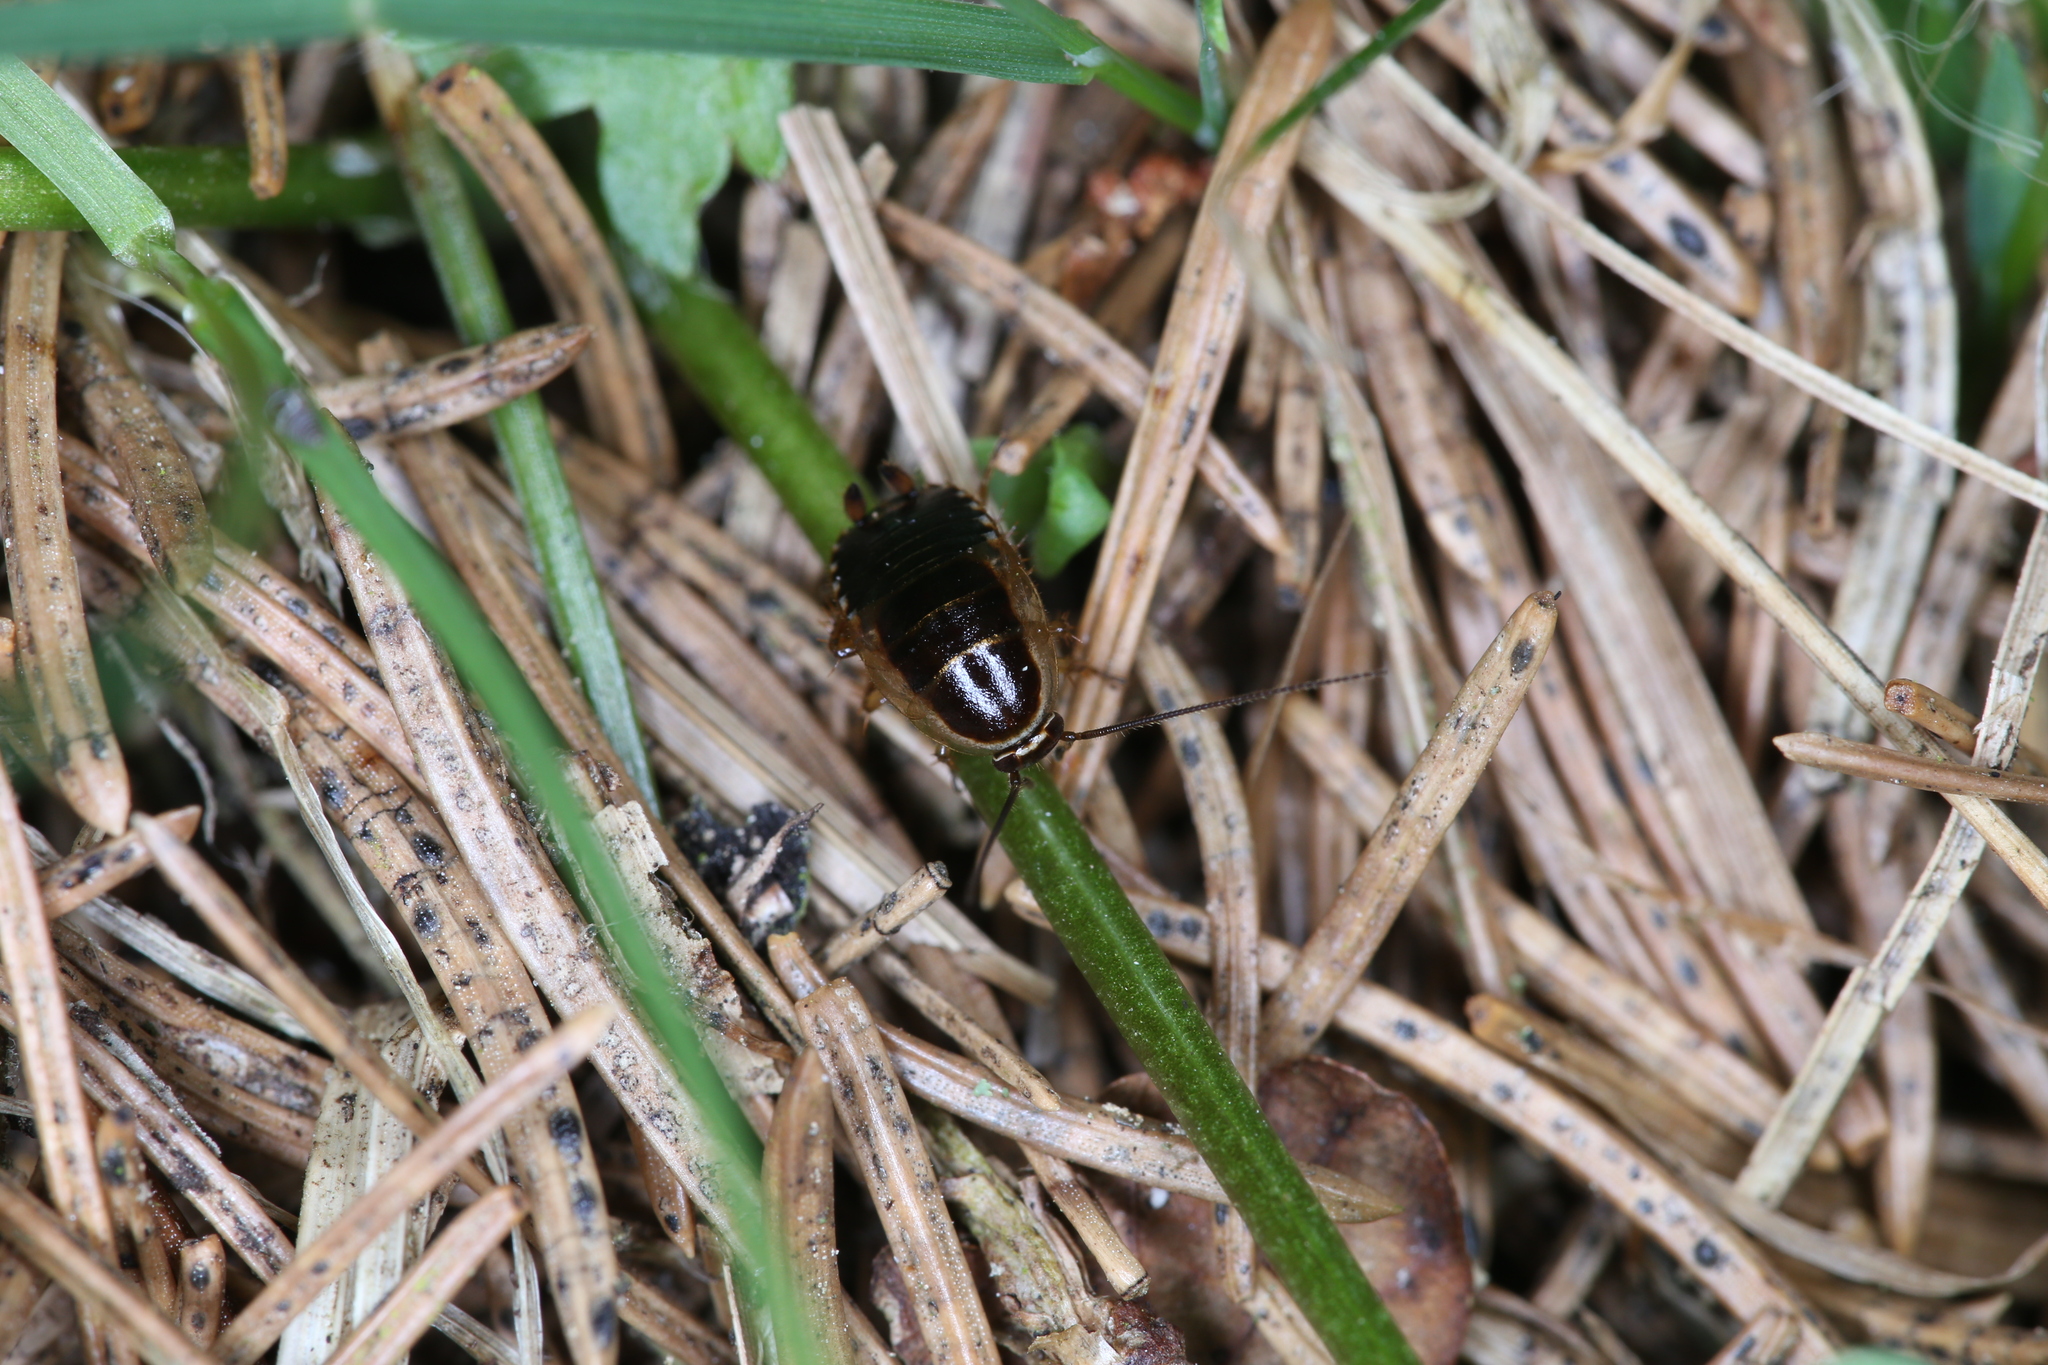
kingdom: Animalia
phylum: Arthropoda
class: Insecta
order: Blattodea
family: Ectobiidae
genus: Ectobius
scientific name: Ectobius sylvestris
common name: Forest cockroach
